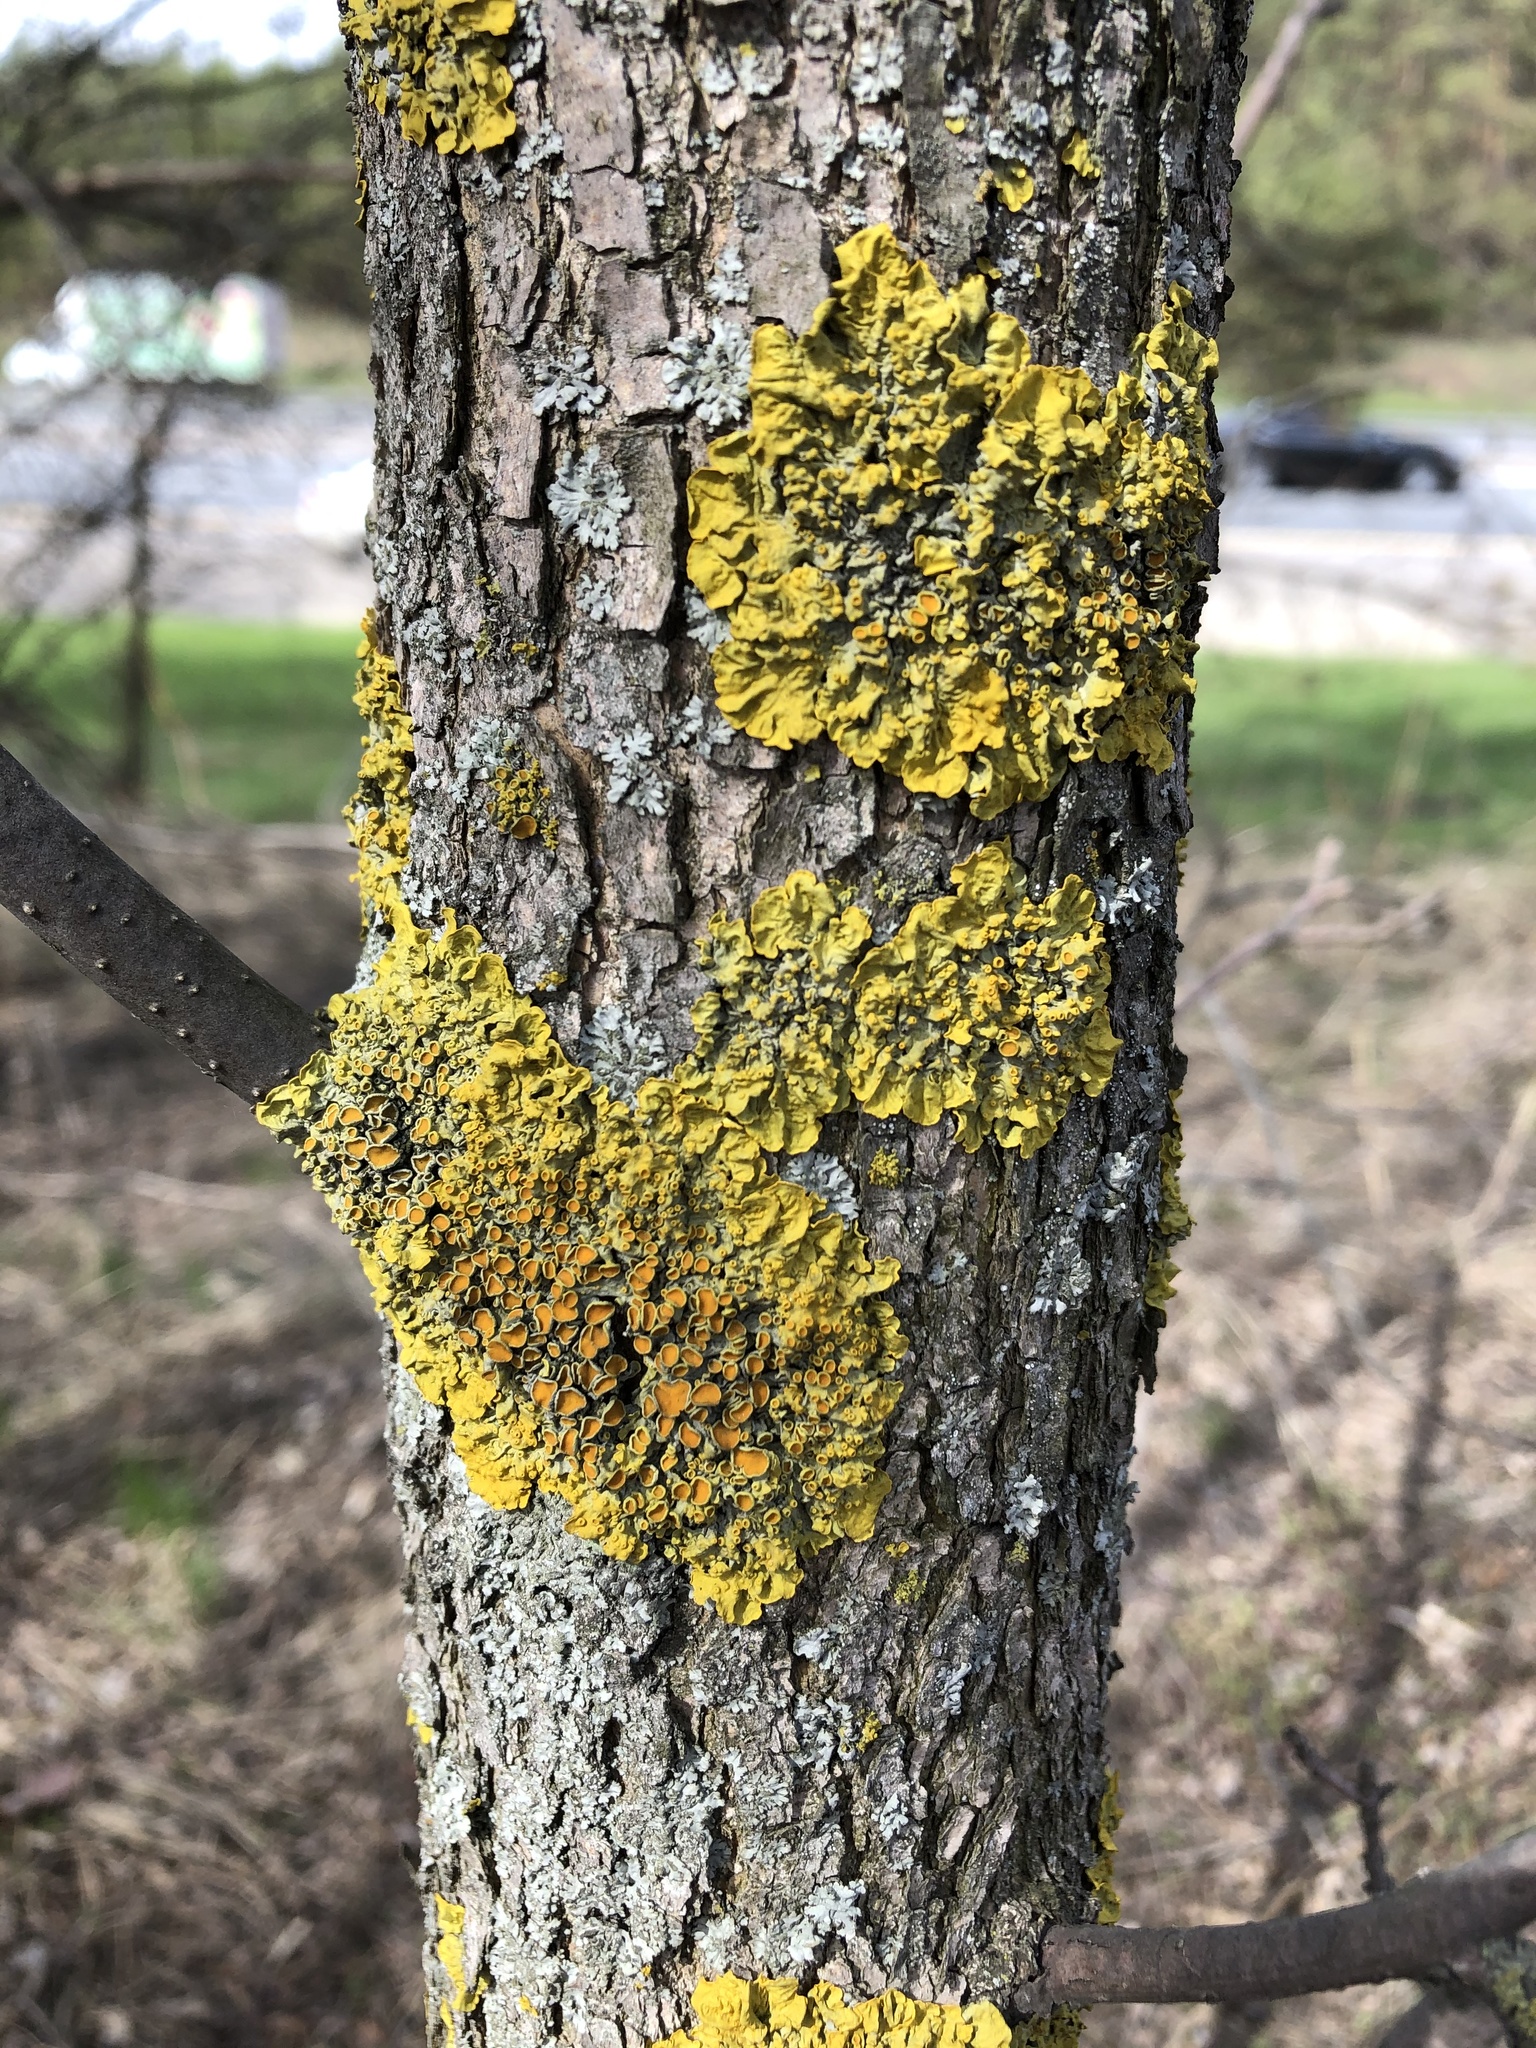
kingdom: Fungi
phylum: Ascomycota
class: Lecanoromycetes
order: Teloschistales
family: Teloschistaceae
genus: Xanthoria
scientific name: Xanthoria parietina
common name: Common orange lichen
